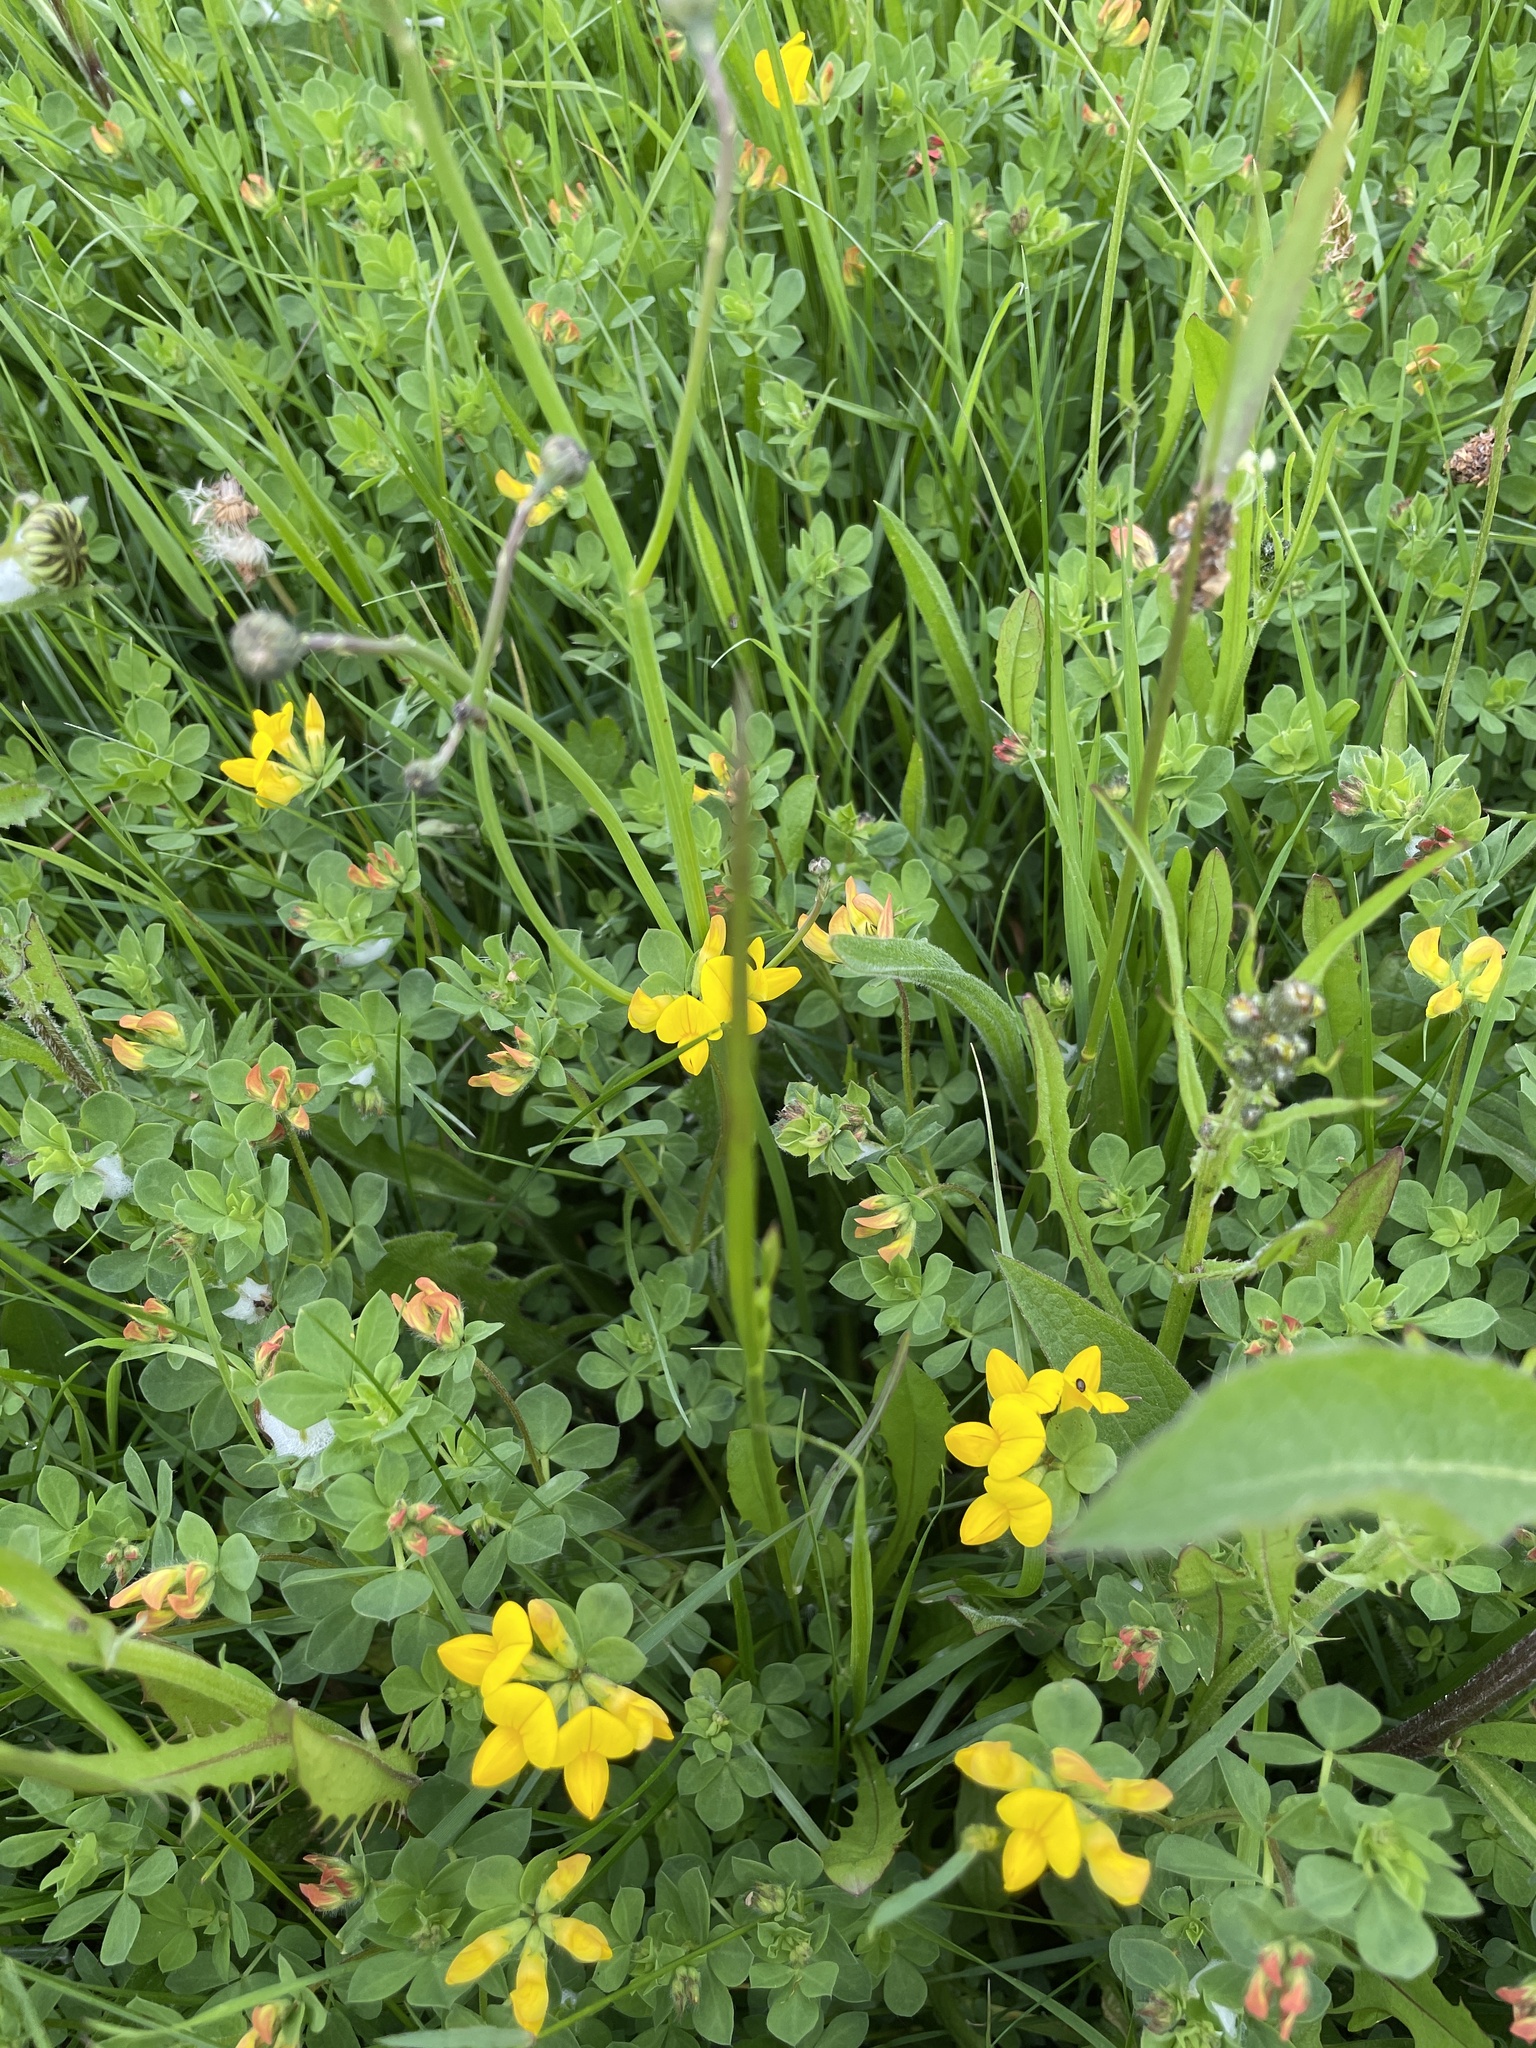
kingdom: Plantae
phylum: Tracheophyta
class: Magnoliopsida
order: Fabales
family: Fabaceae
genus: Lotus
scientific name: Lotus corniculatus
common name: Common bird's-foot-trefoil
